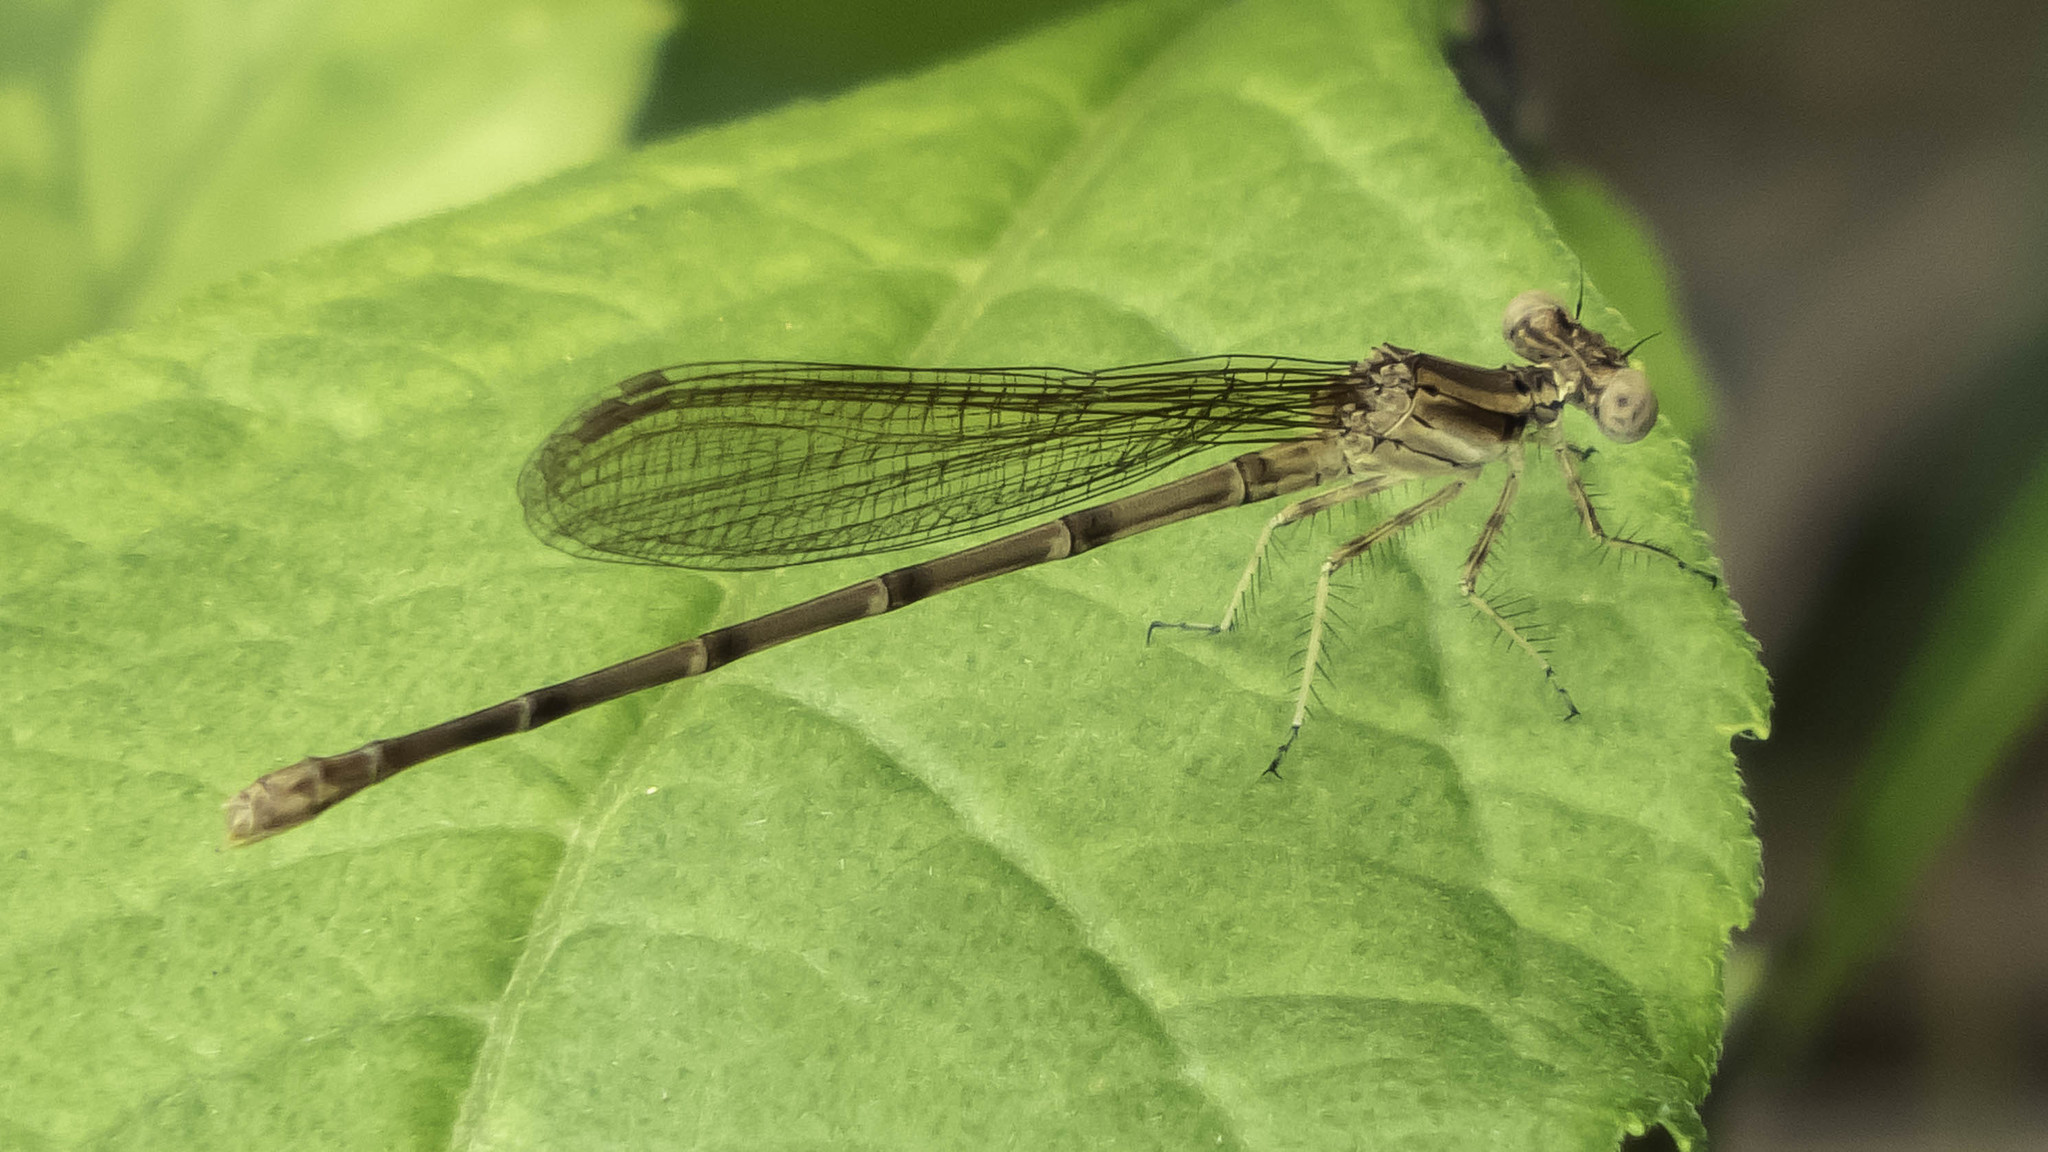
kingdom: Animalia
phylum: Arthropoda
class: Insecta
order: Odonata
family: Coenagrionidae
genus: Argia
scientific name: Argia sedula
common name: Blue-ringed dancer
